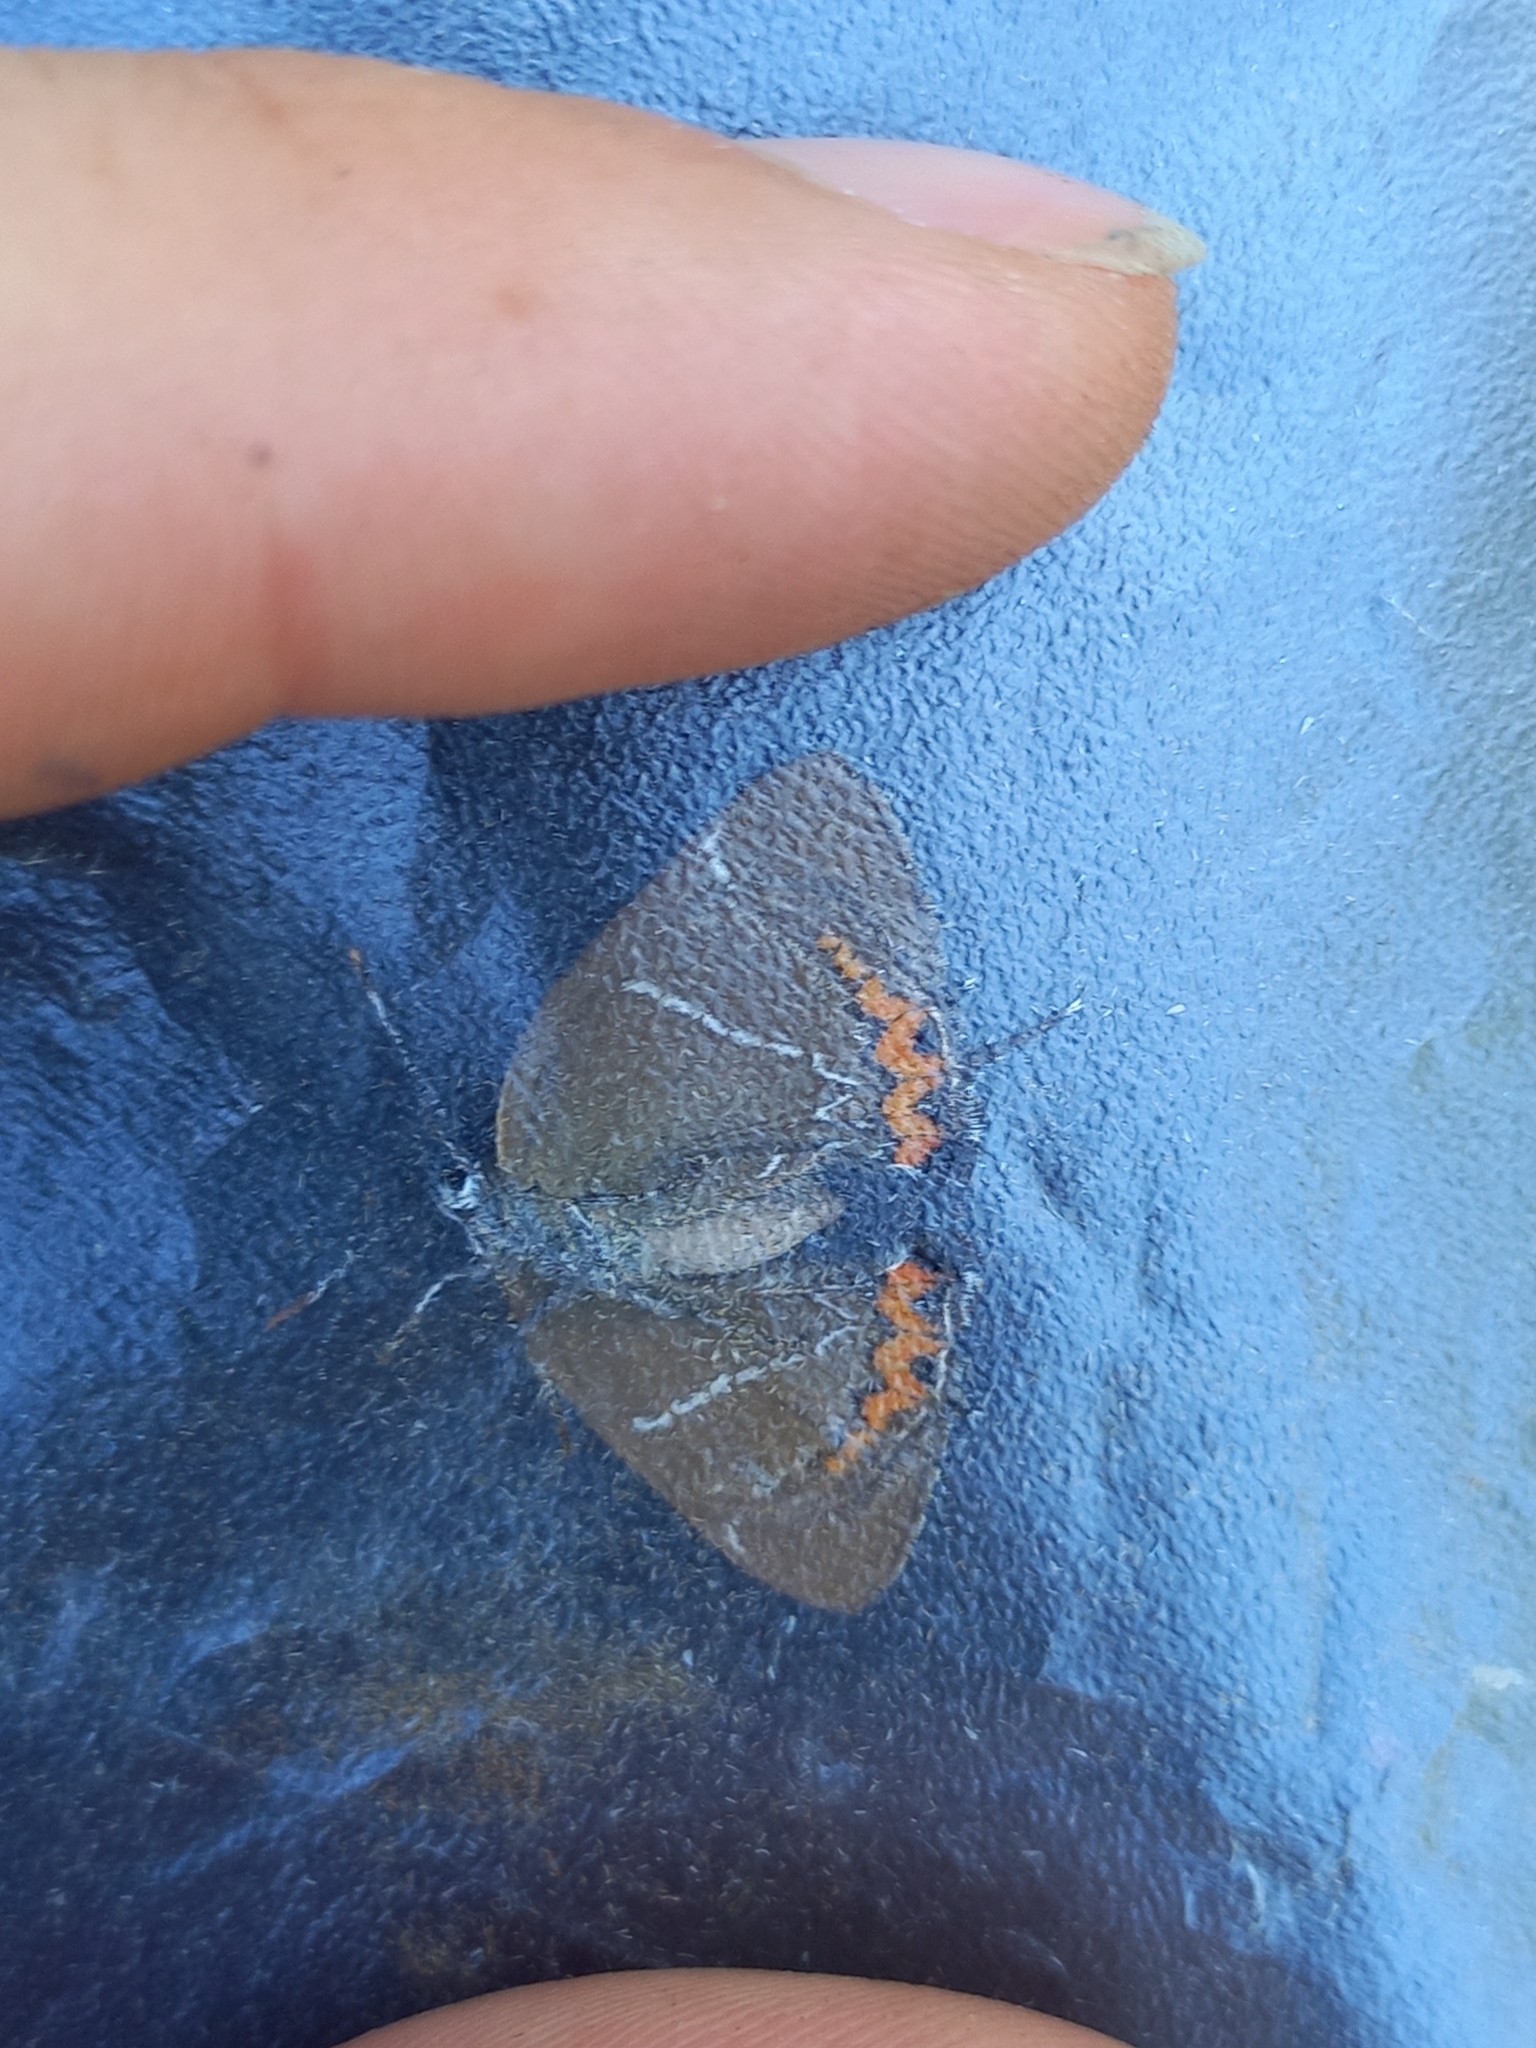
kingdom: Animalia
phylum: Arthropoda
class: Insecta
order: Lepidoptera
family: Lycaenidae
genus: Satyrium
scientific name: Satyrium w-album
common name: White-letter hairstreak
